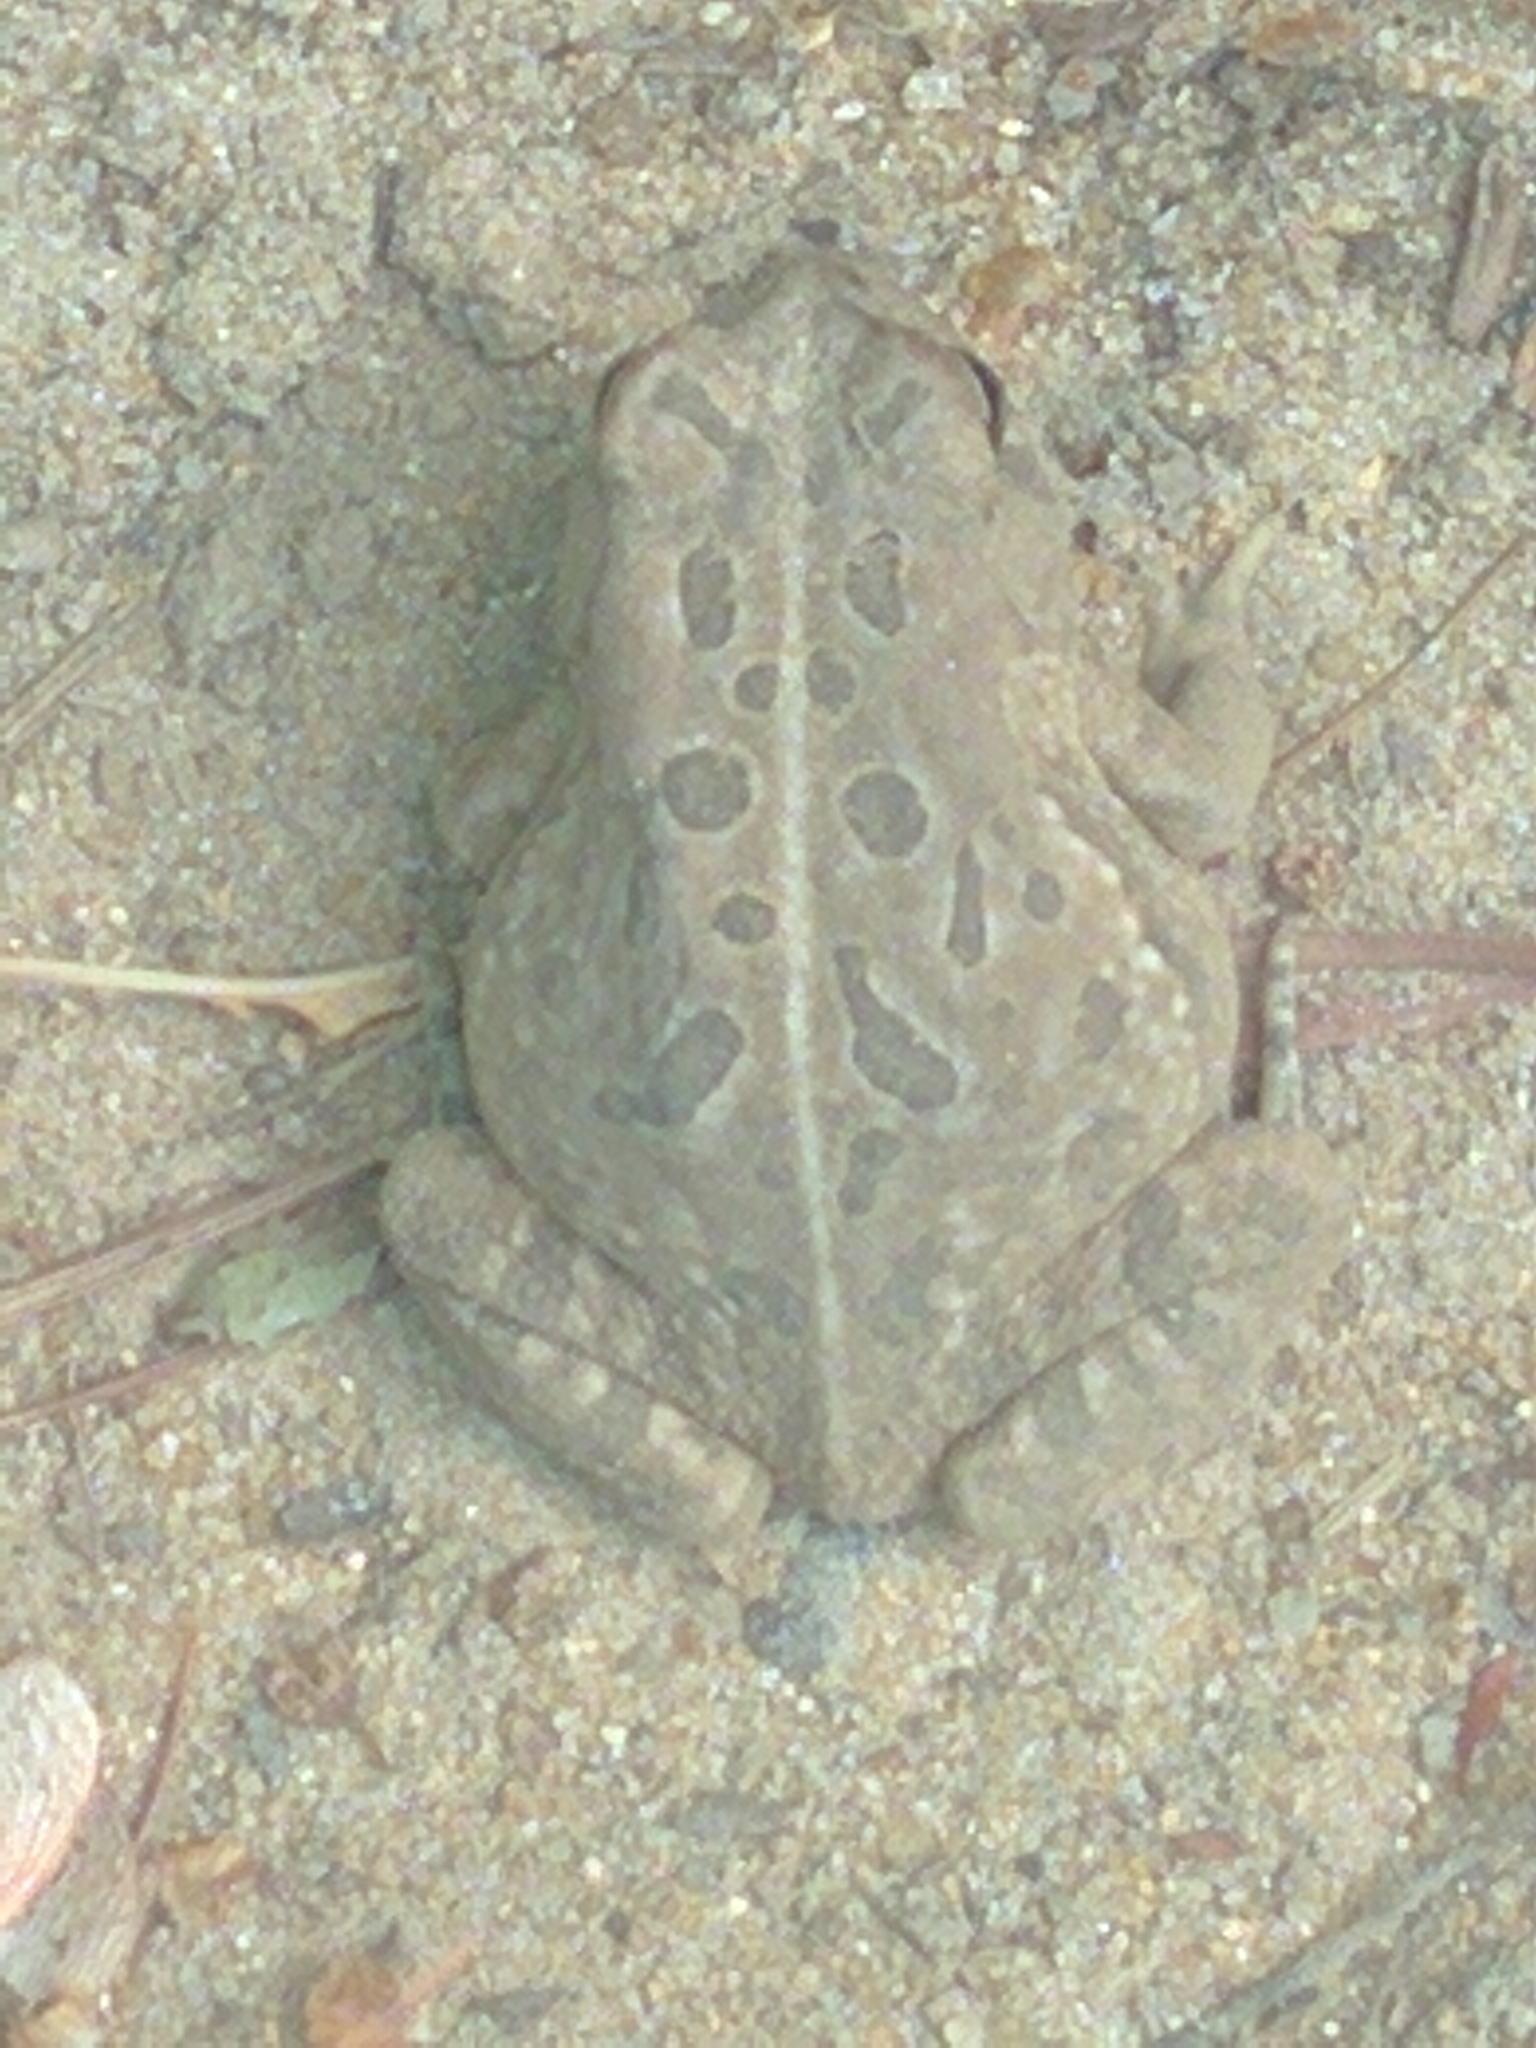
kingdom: Animalia
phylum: Chordata
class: Amphibia
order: Anura
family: Bufonidae
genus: Anaxyrus
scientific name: Anaxyrus fowleri
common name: Fowler's toad
